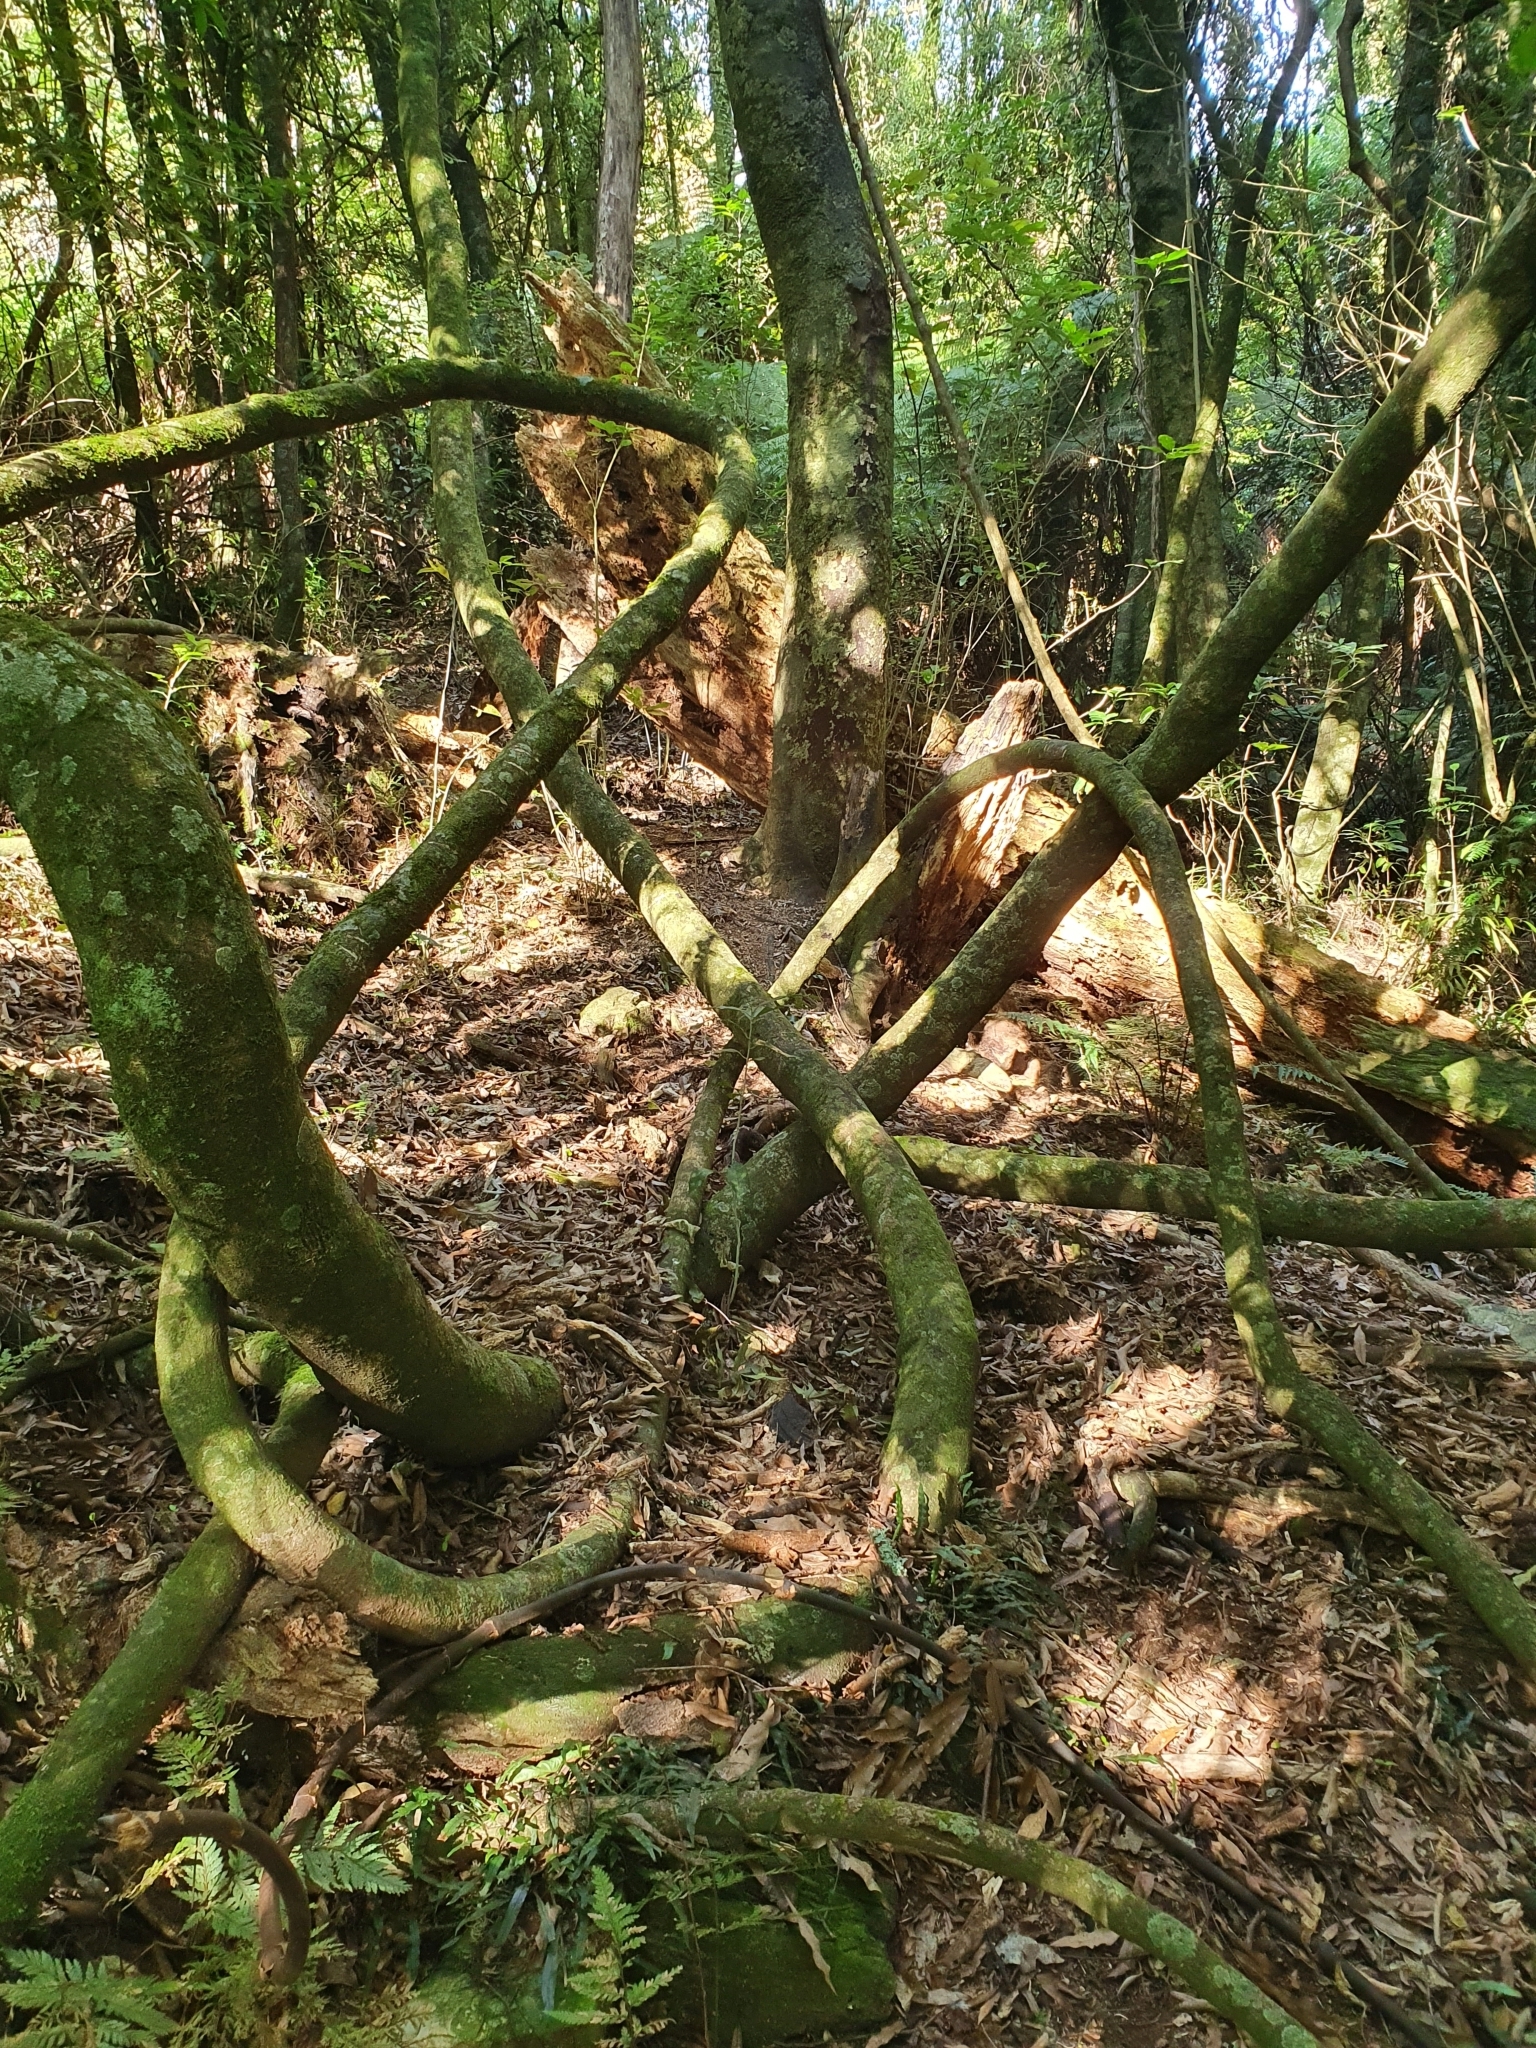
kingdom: Plantae
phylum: Tracheophyta
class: Magnoliopsida
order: Malpighiales
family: Passifloraceae
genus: Passiflora
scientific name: Passiflora tetrandra
